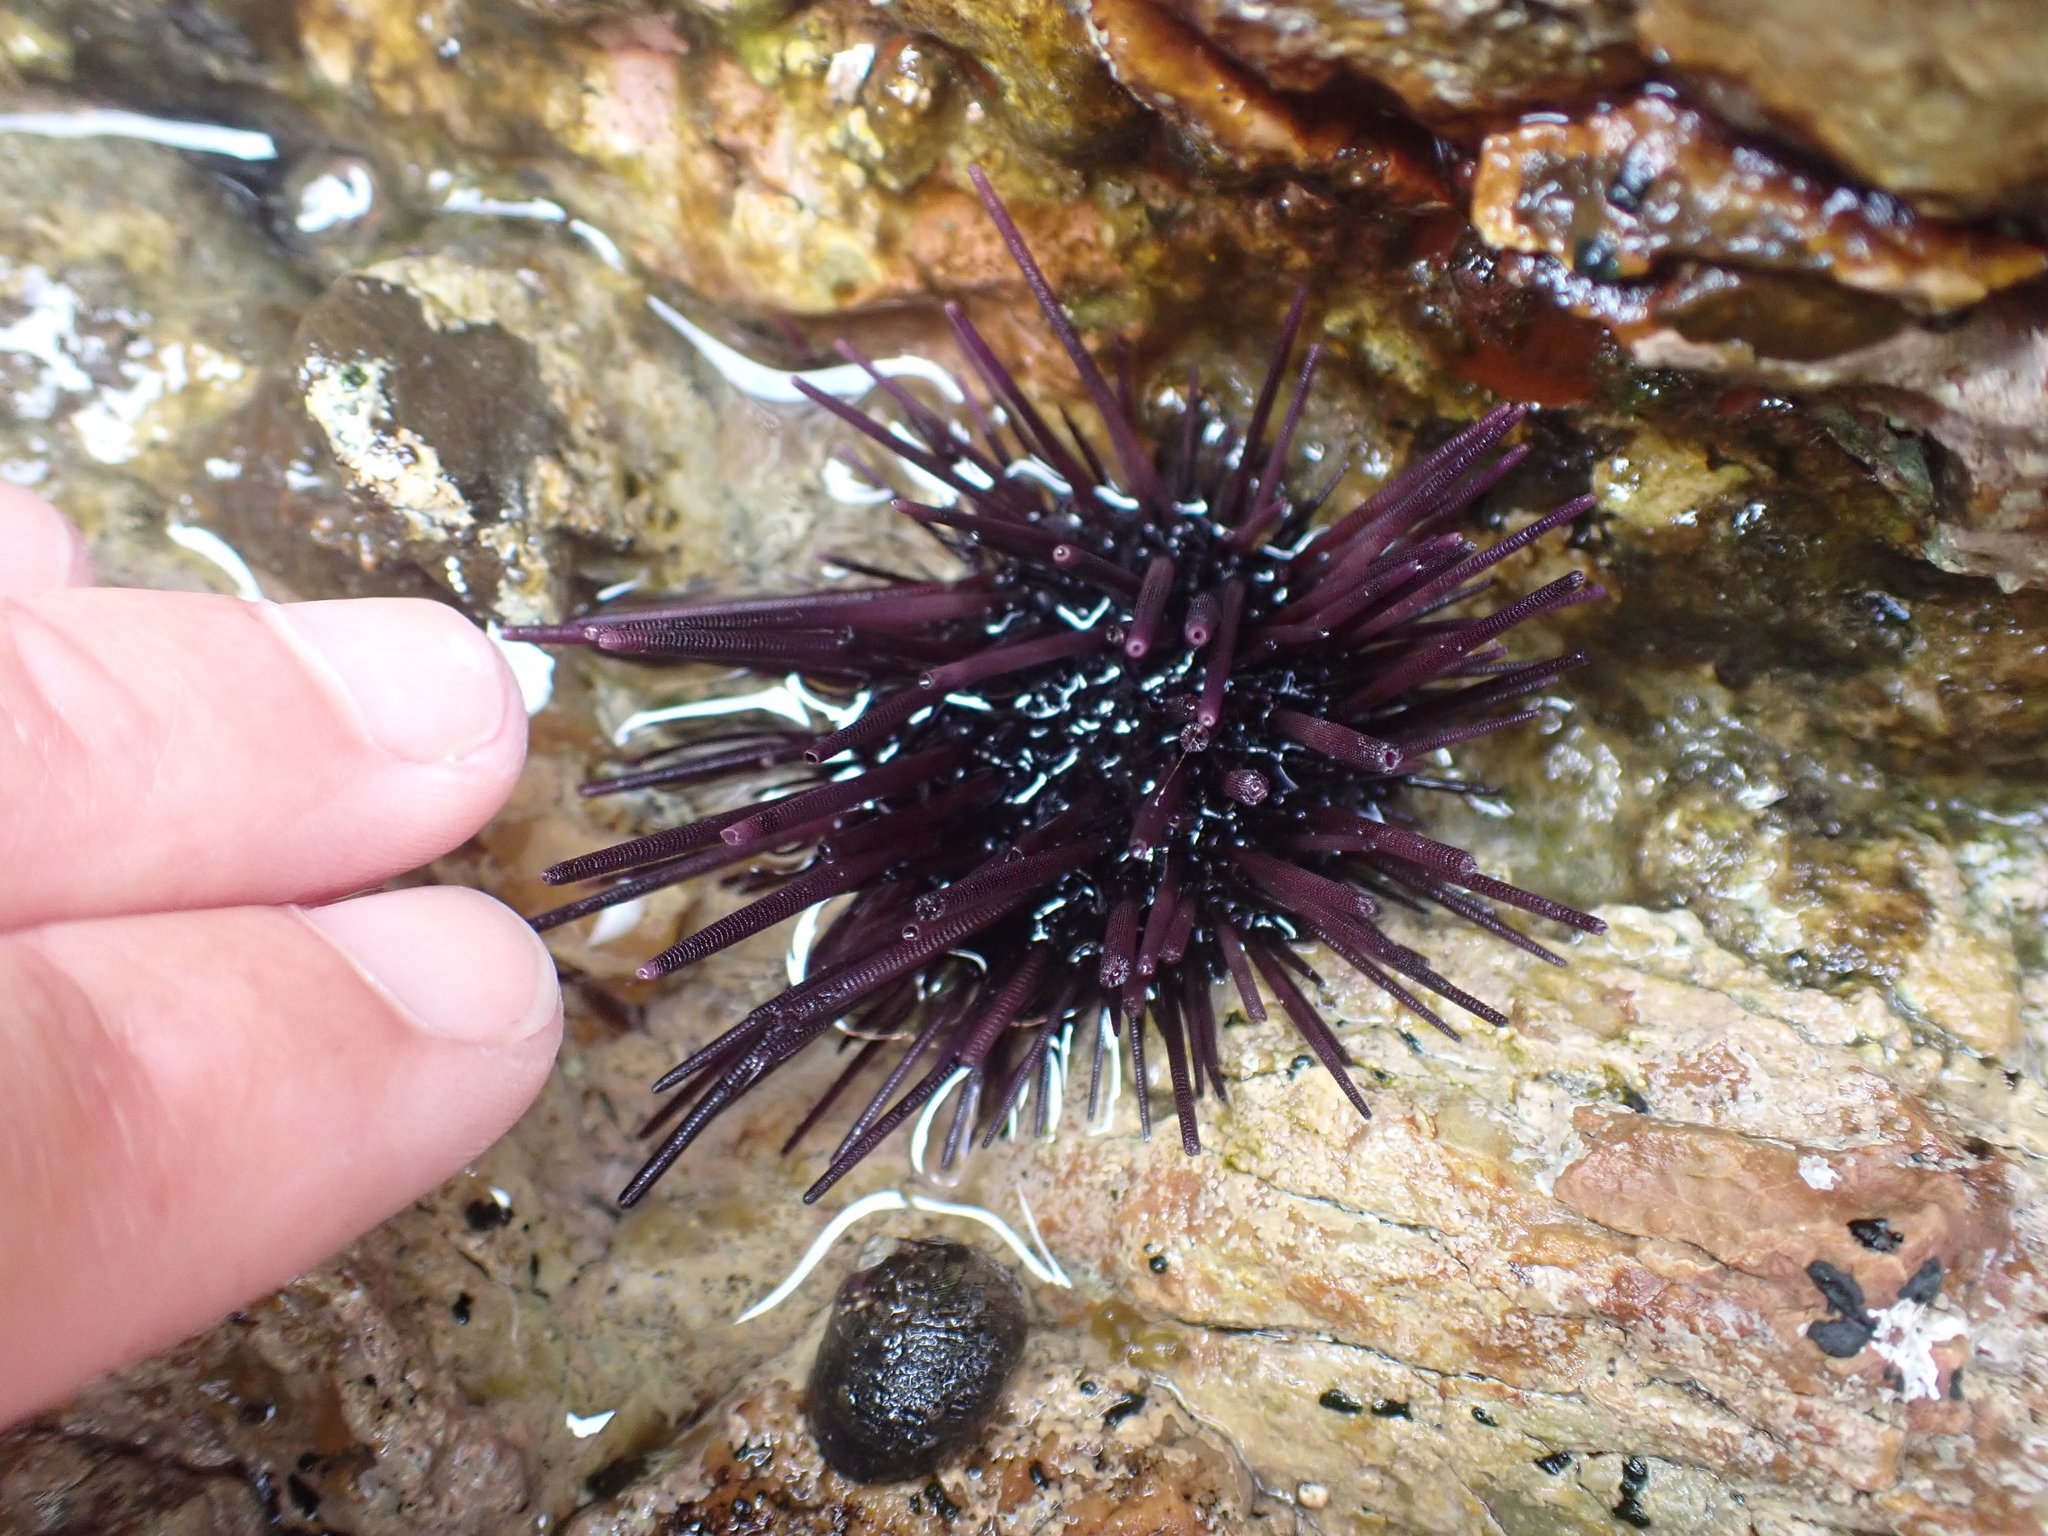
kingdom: Animalia
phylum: Echinodermata
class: Echinoidea
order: Diadematoida
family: Diadematidae
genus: Centrostephanus
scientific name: Centrostephanus rodgersii
